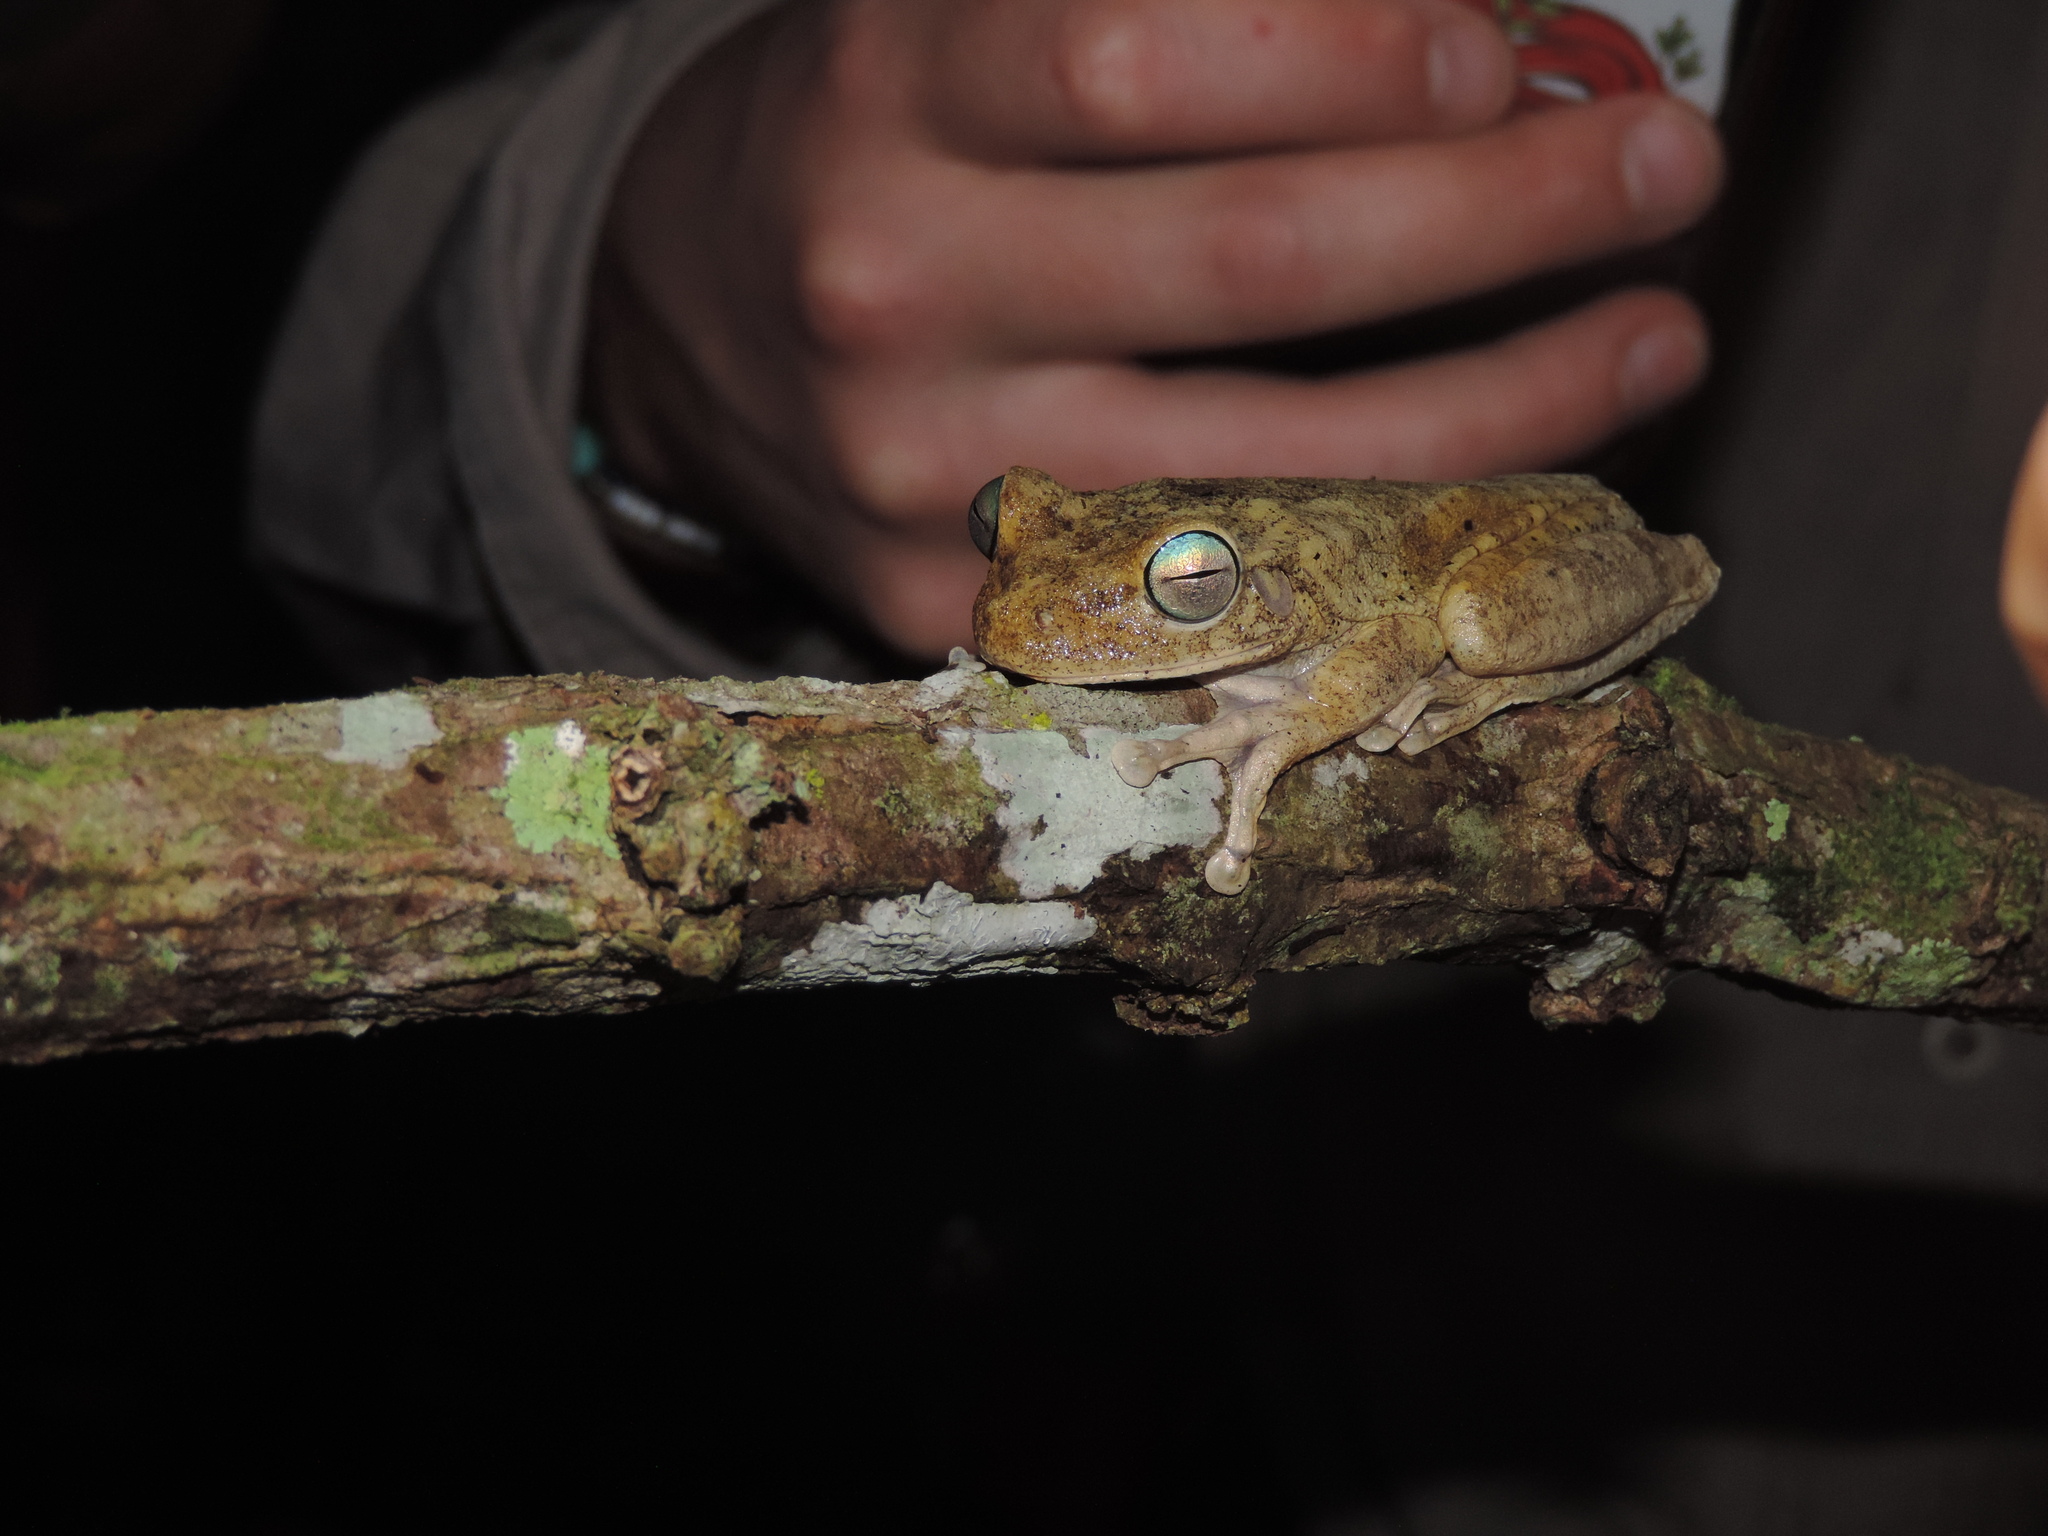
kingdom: Animalia
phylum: Chordata
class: Amphibia
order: Anura
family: Hylidae
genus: Boana
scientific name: Boana pugnax
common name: Chirique-flusse treefrog
